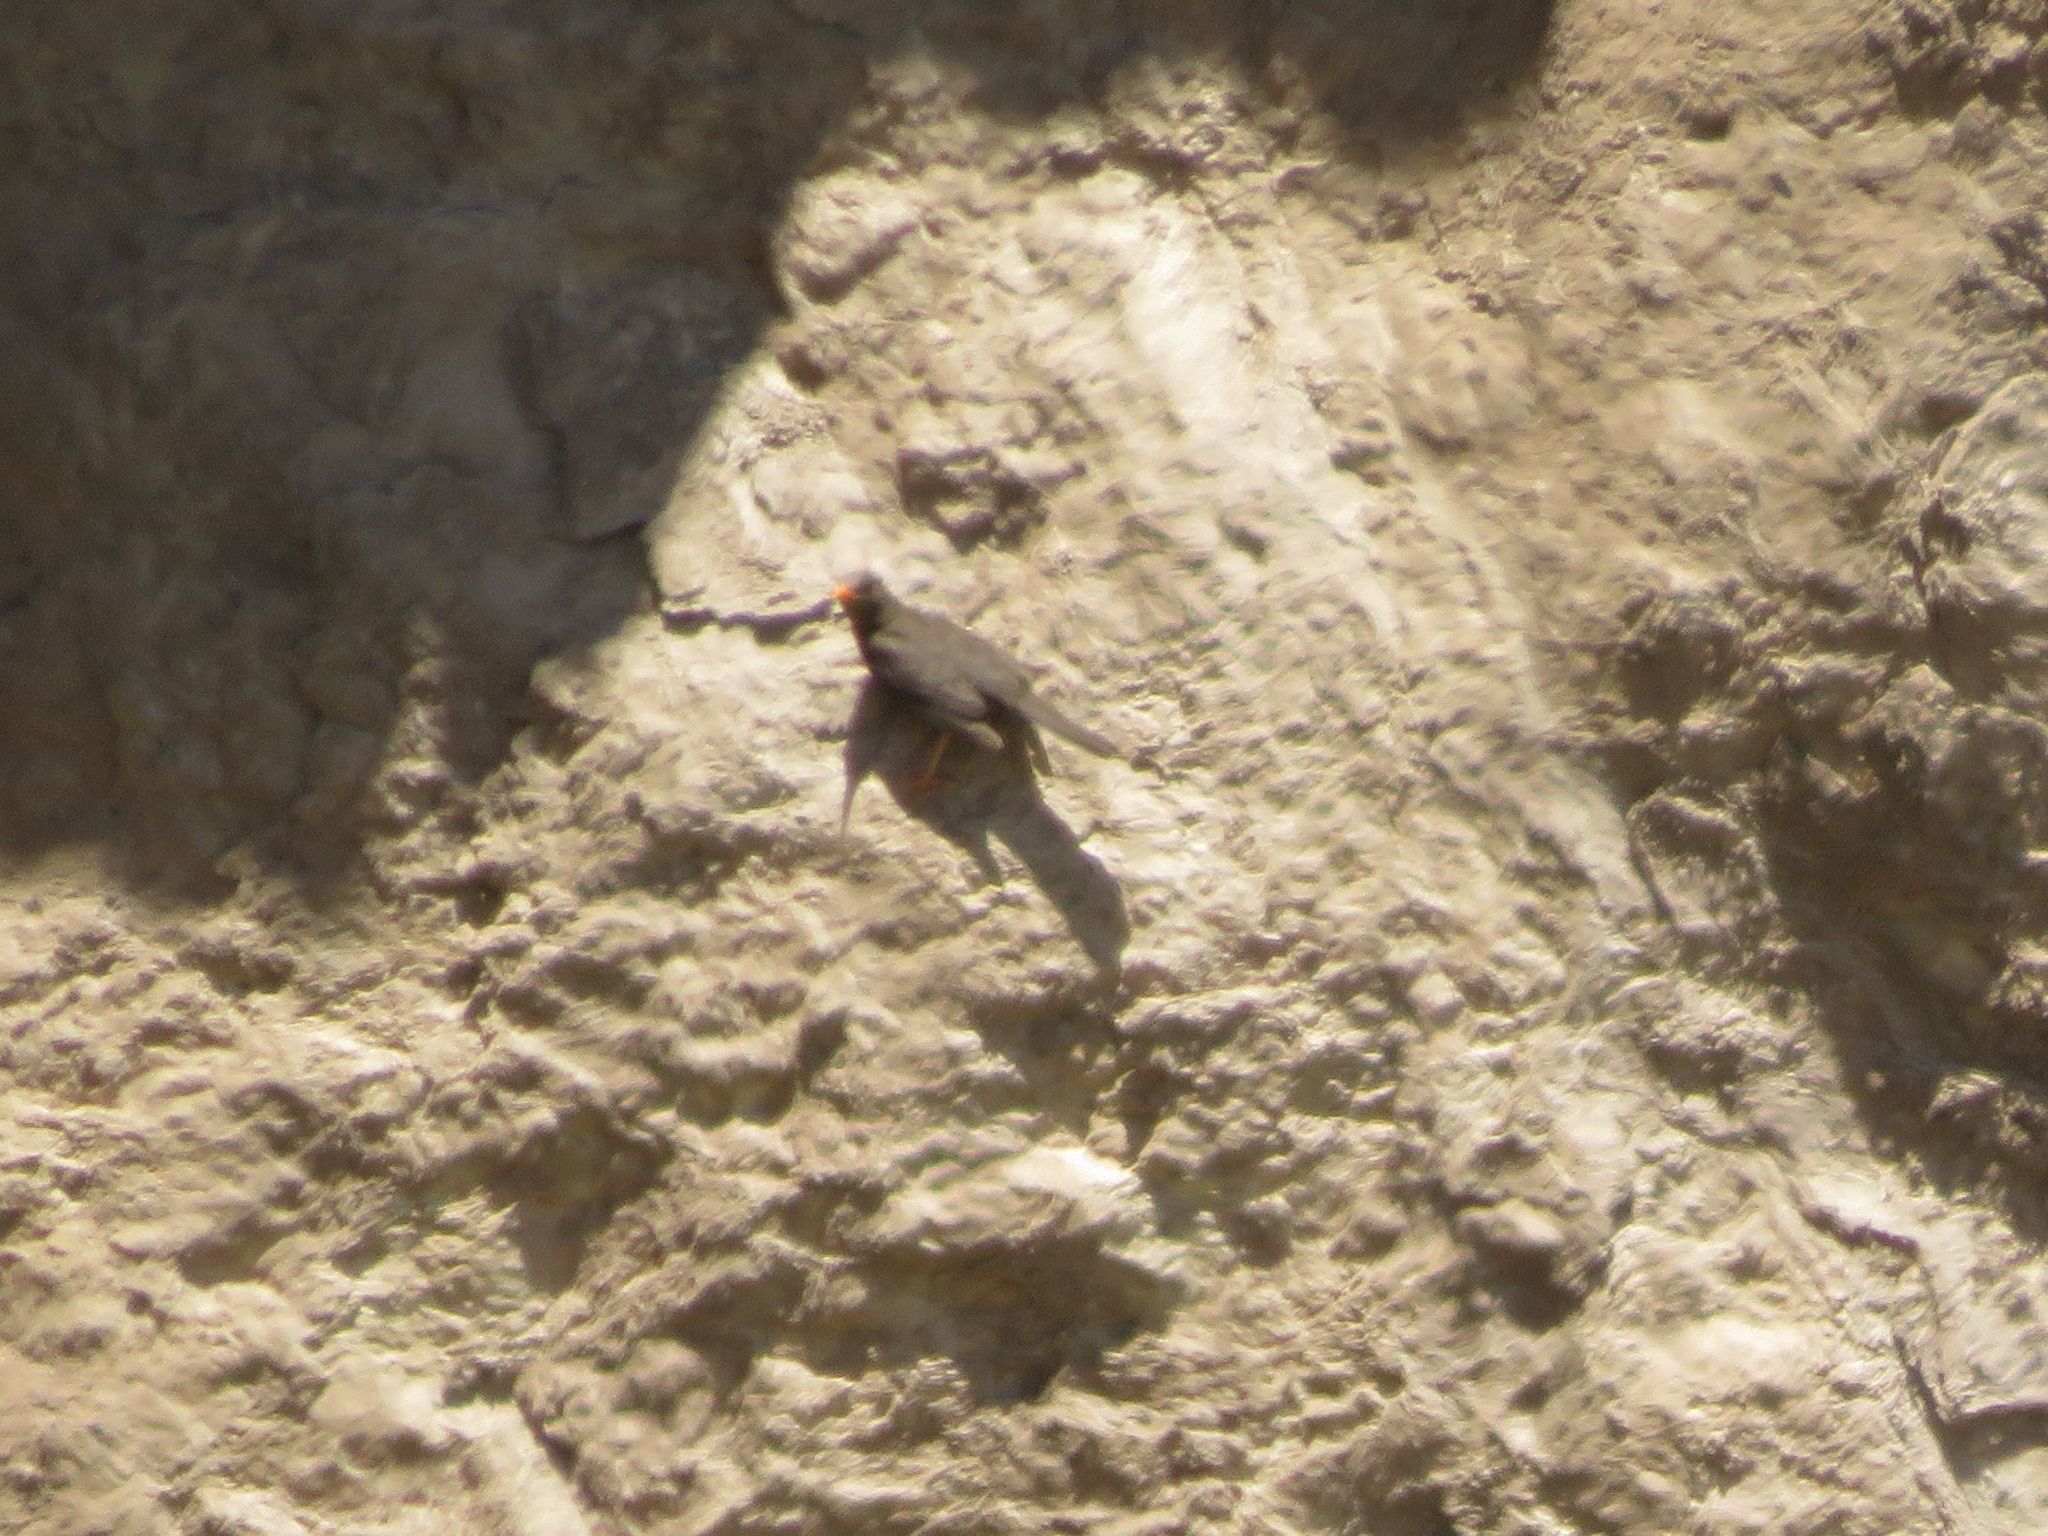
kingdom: Animalia
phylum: Chordata
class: Aves
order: Passeriformes
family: Turdidae
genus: Turdus
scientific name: Turdus chiguanco
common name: Chiguanco thrush
